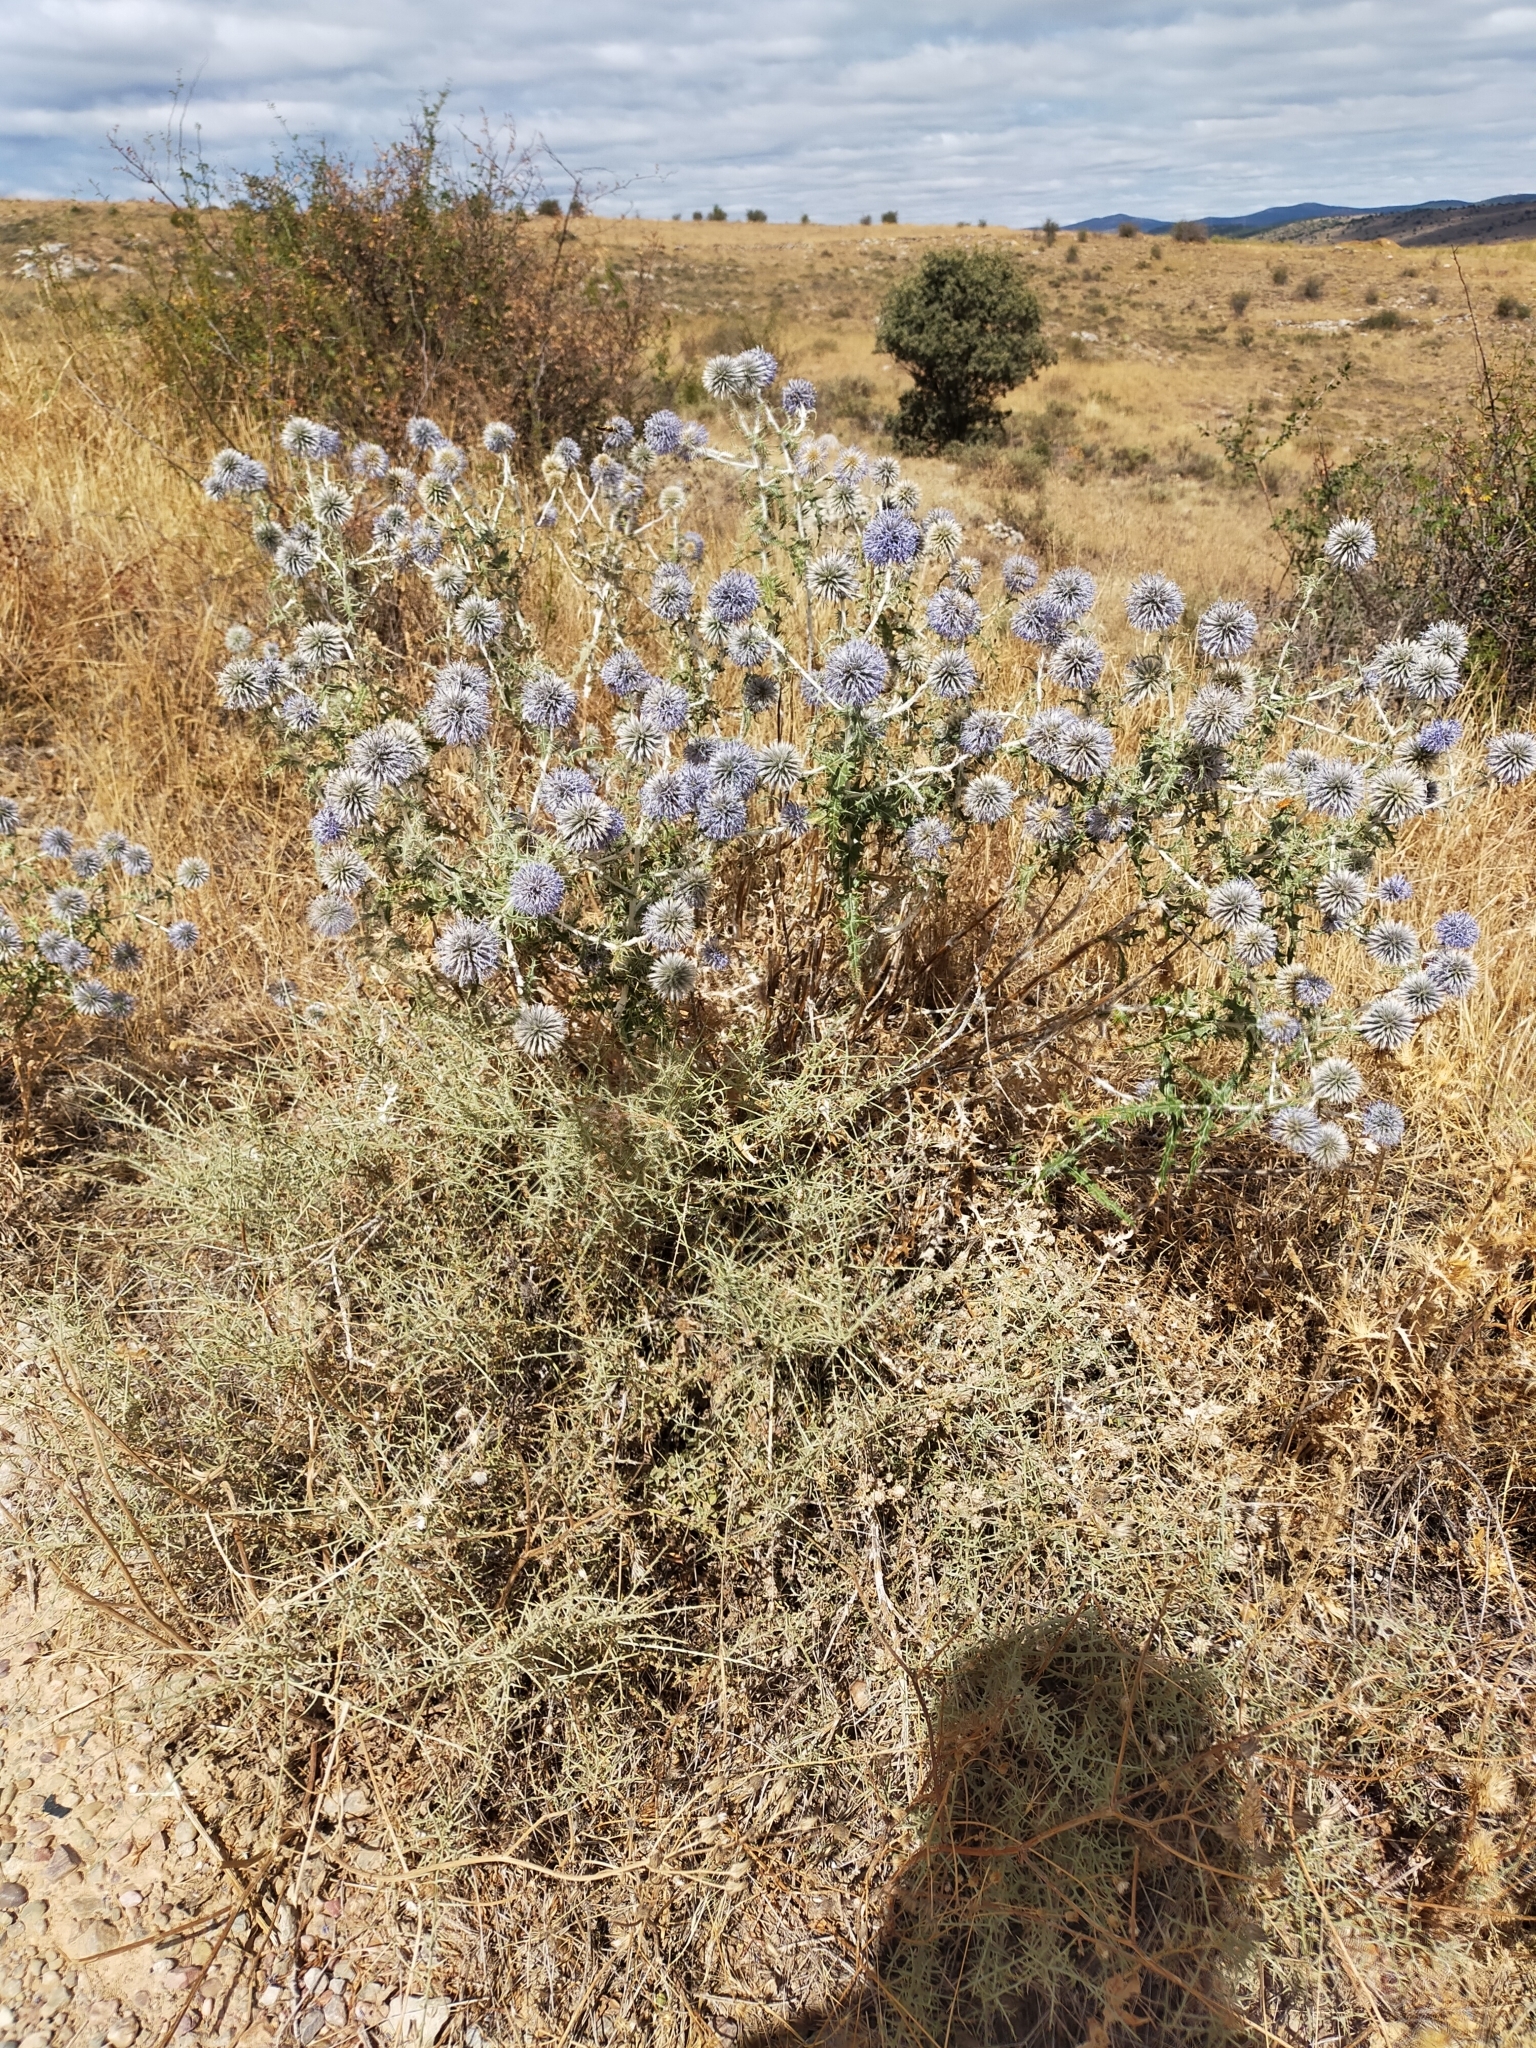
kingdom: Plantae
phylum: Tracheophyta
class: Magnoliopsida
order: Asterales
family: Asteraceae
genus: Echinops
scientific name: Echinops ritro
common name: Globe thistle
